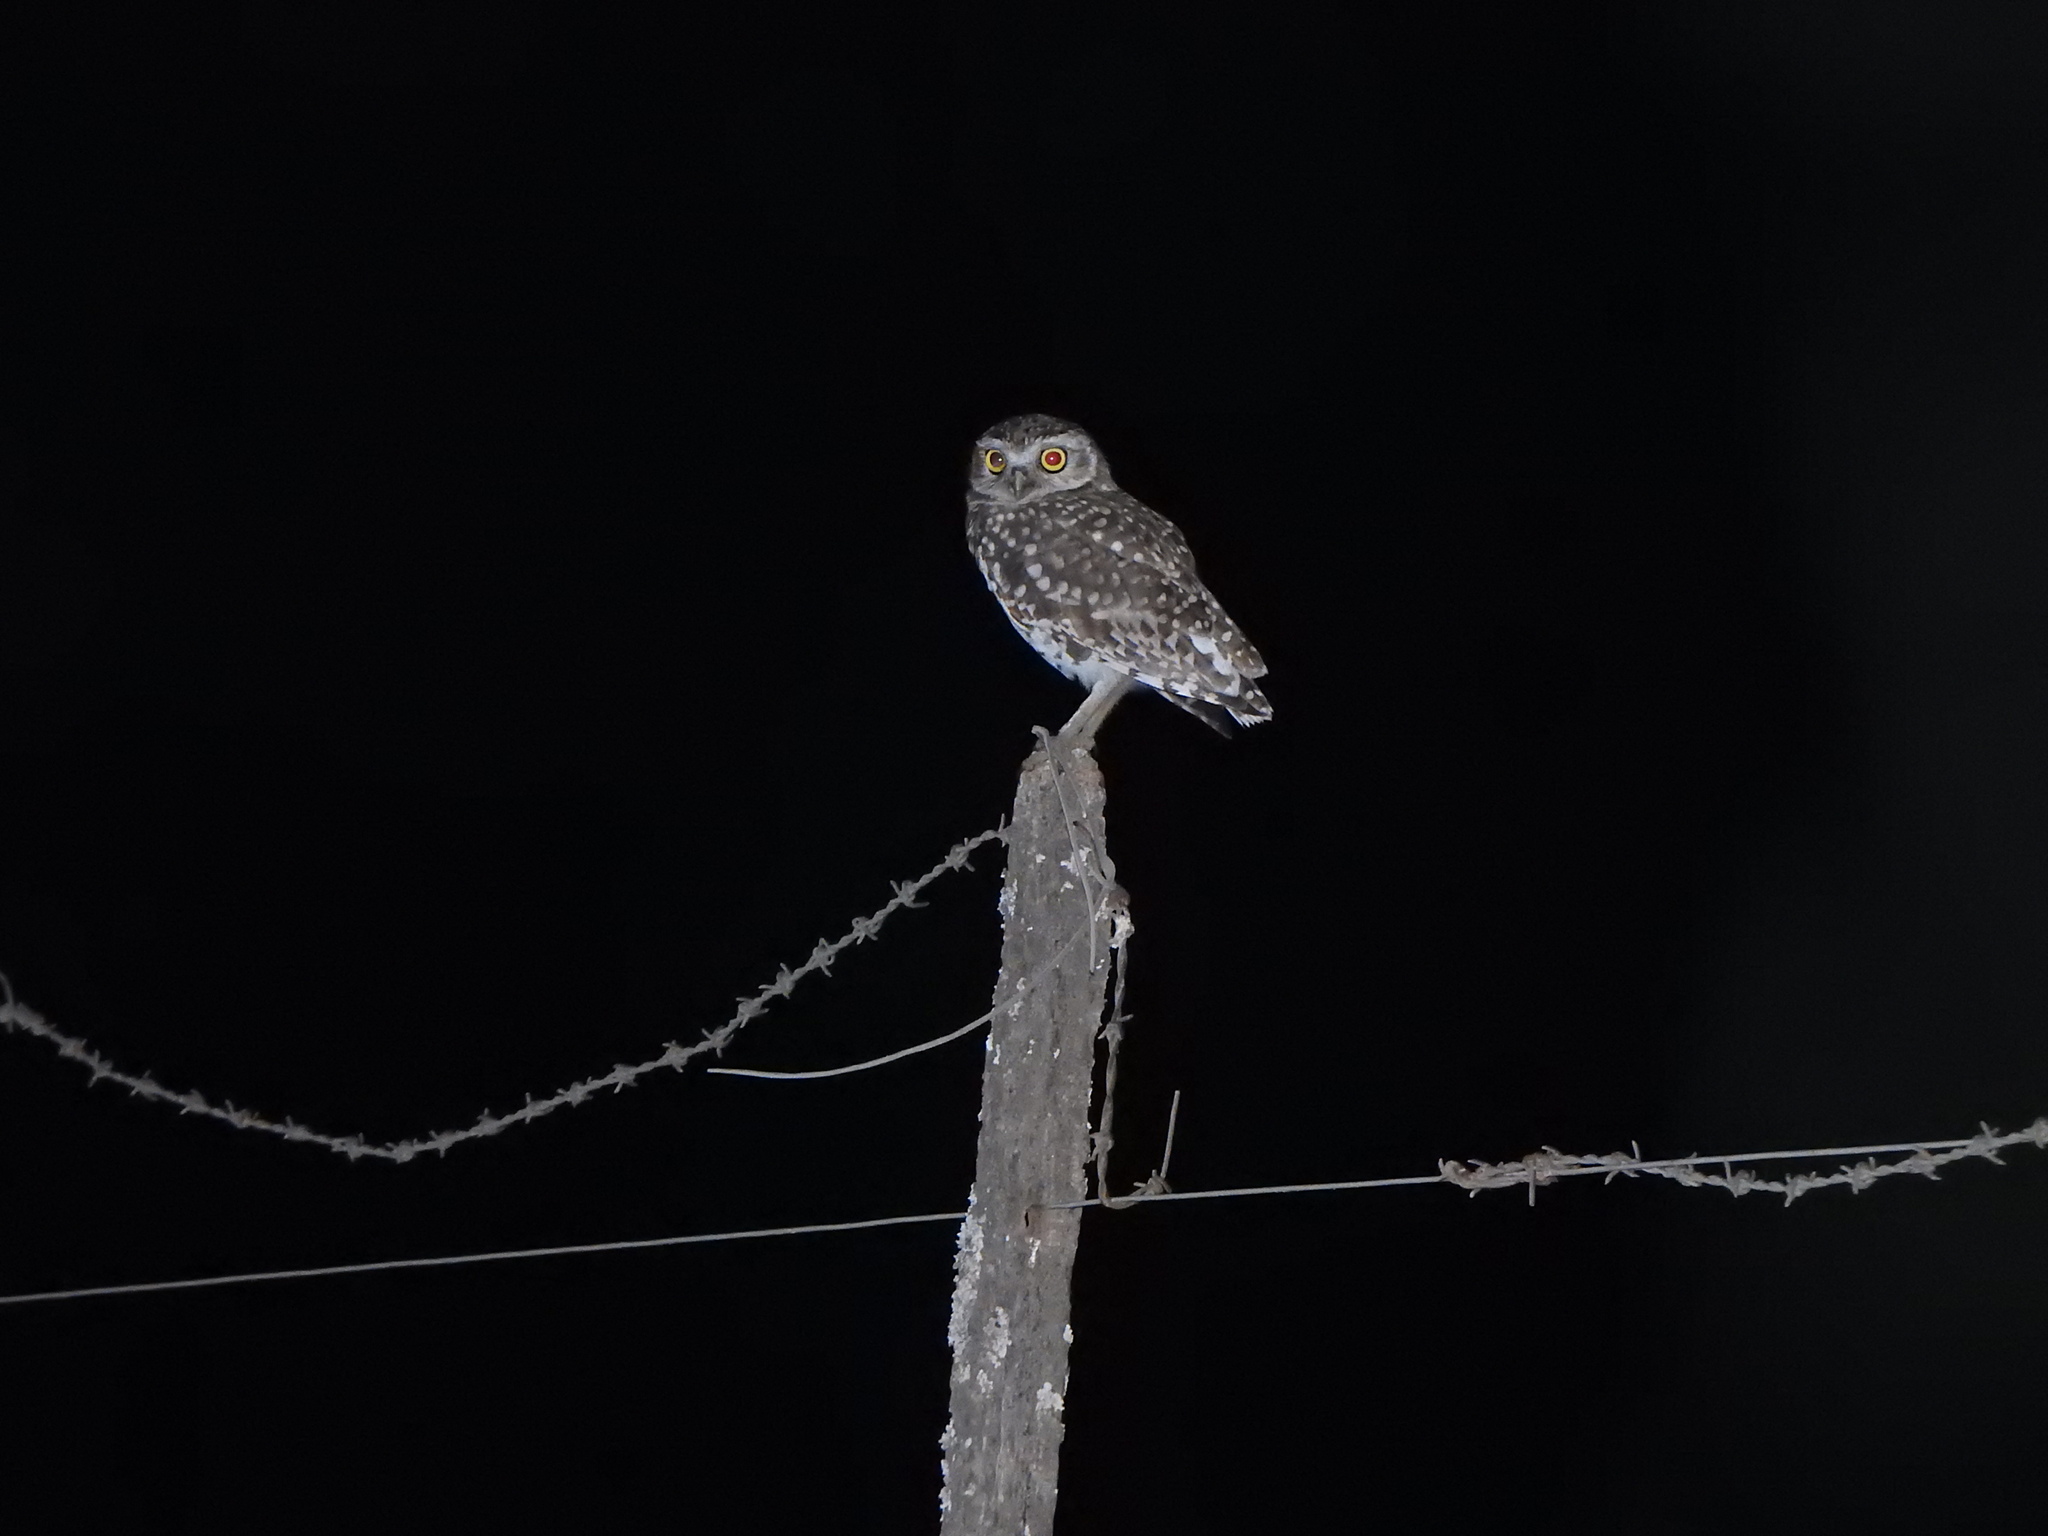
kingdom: Animalia
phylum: Chordata
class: Aves
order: Strigiformes
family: Strigidae
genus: Athene
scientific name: Athene cunicularia
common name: Burrowing owl
